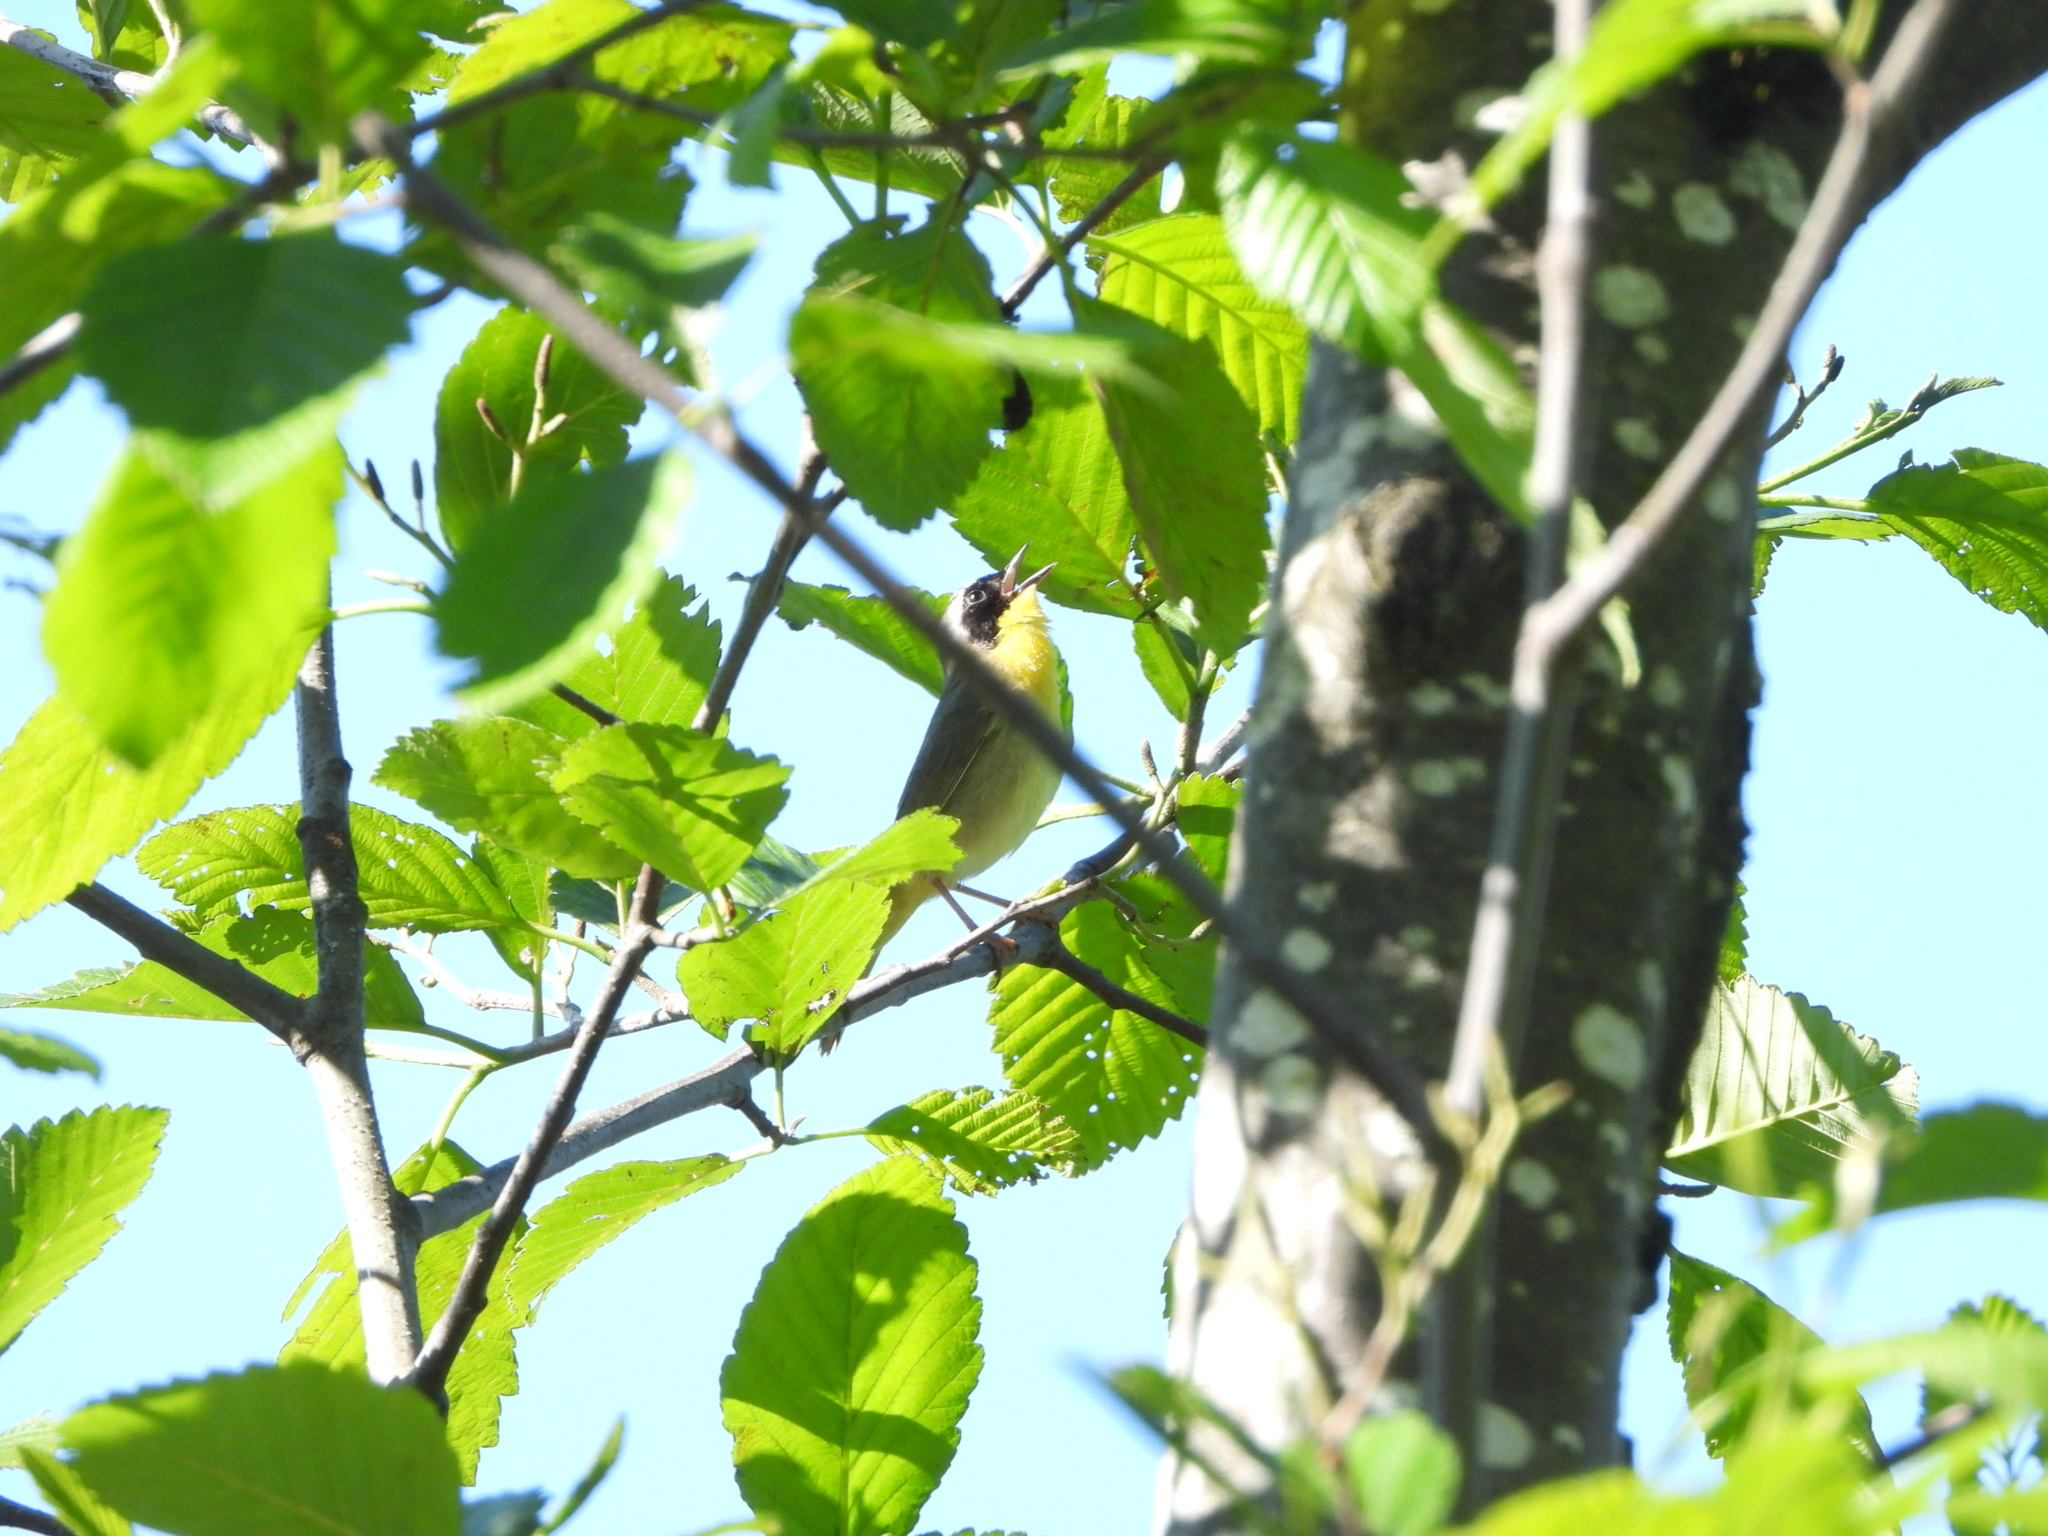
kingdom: Animalia
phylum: Chordata
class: Aves
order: Passeriformes
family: Parulidae
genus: Geothlypis
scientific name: Geothlypis trichas
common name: Common yellowthroat
